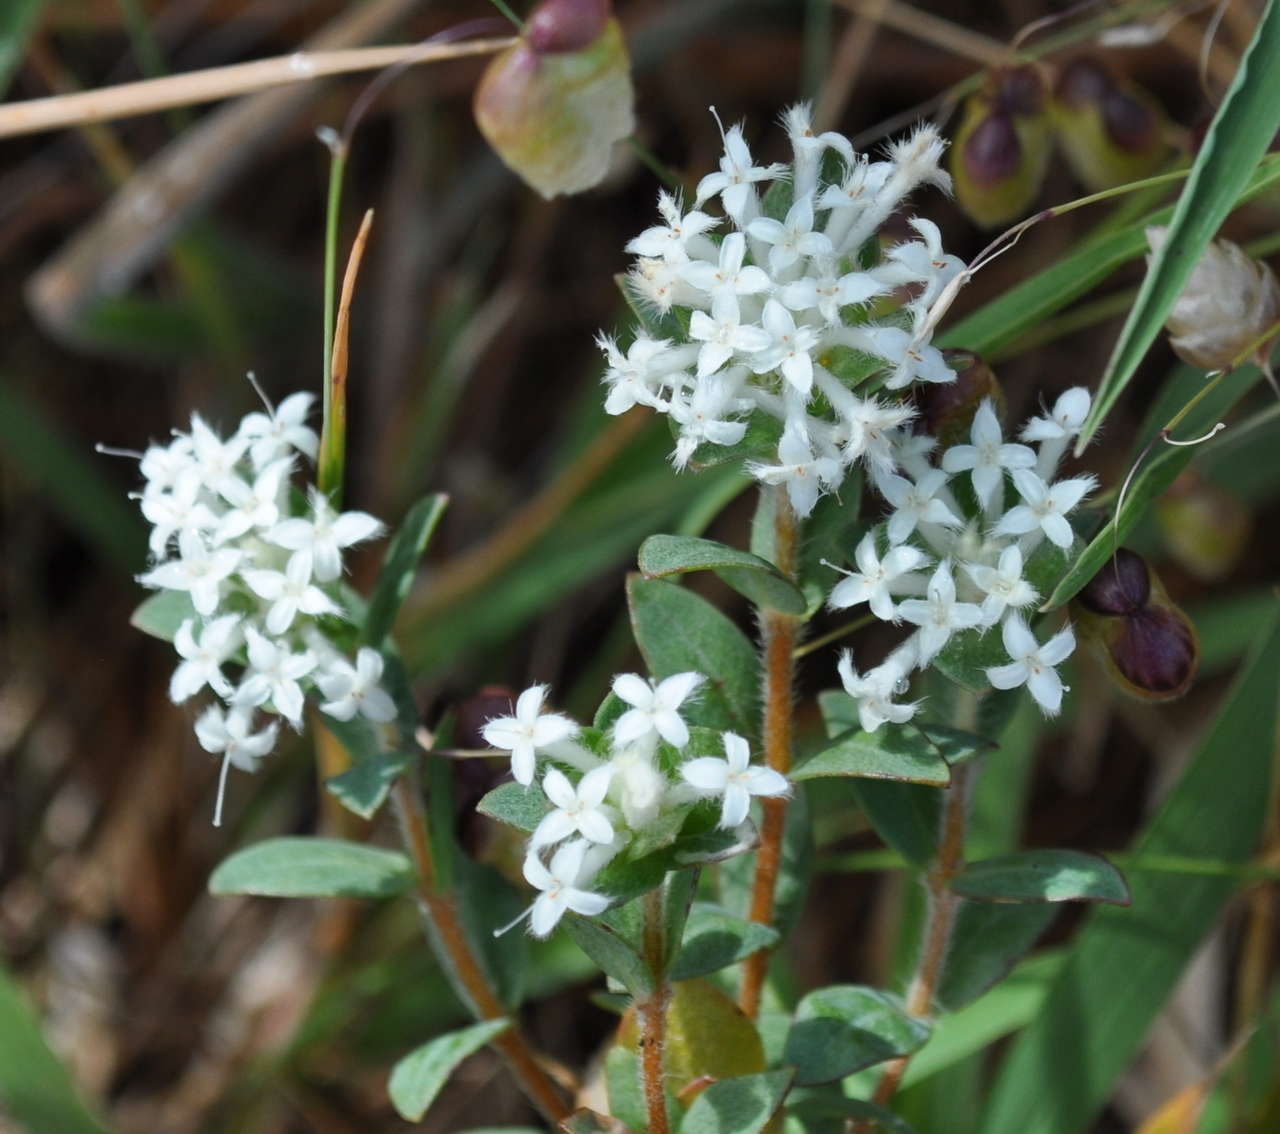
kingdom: Plantae
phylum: Tracheophyta
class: Magnoliopsida
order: Malvales
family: Thymelaeaceae
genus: Pimelea
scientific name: Pimelea humilis
